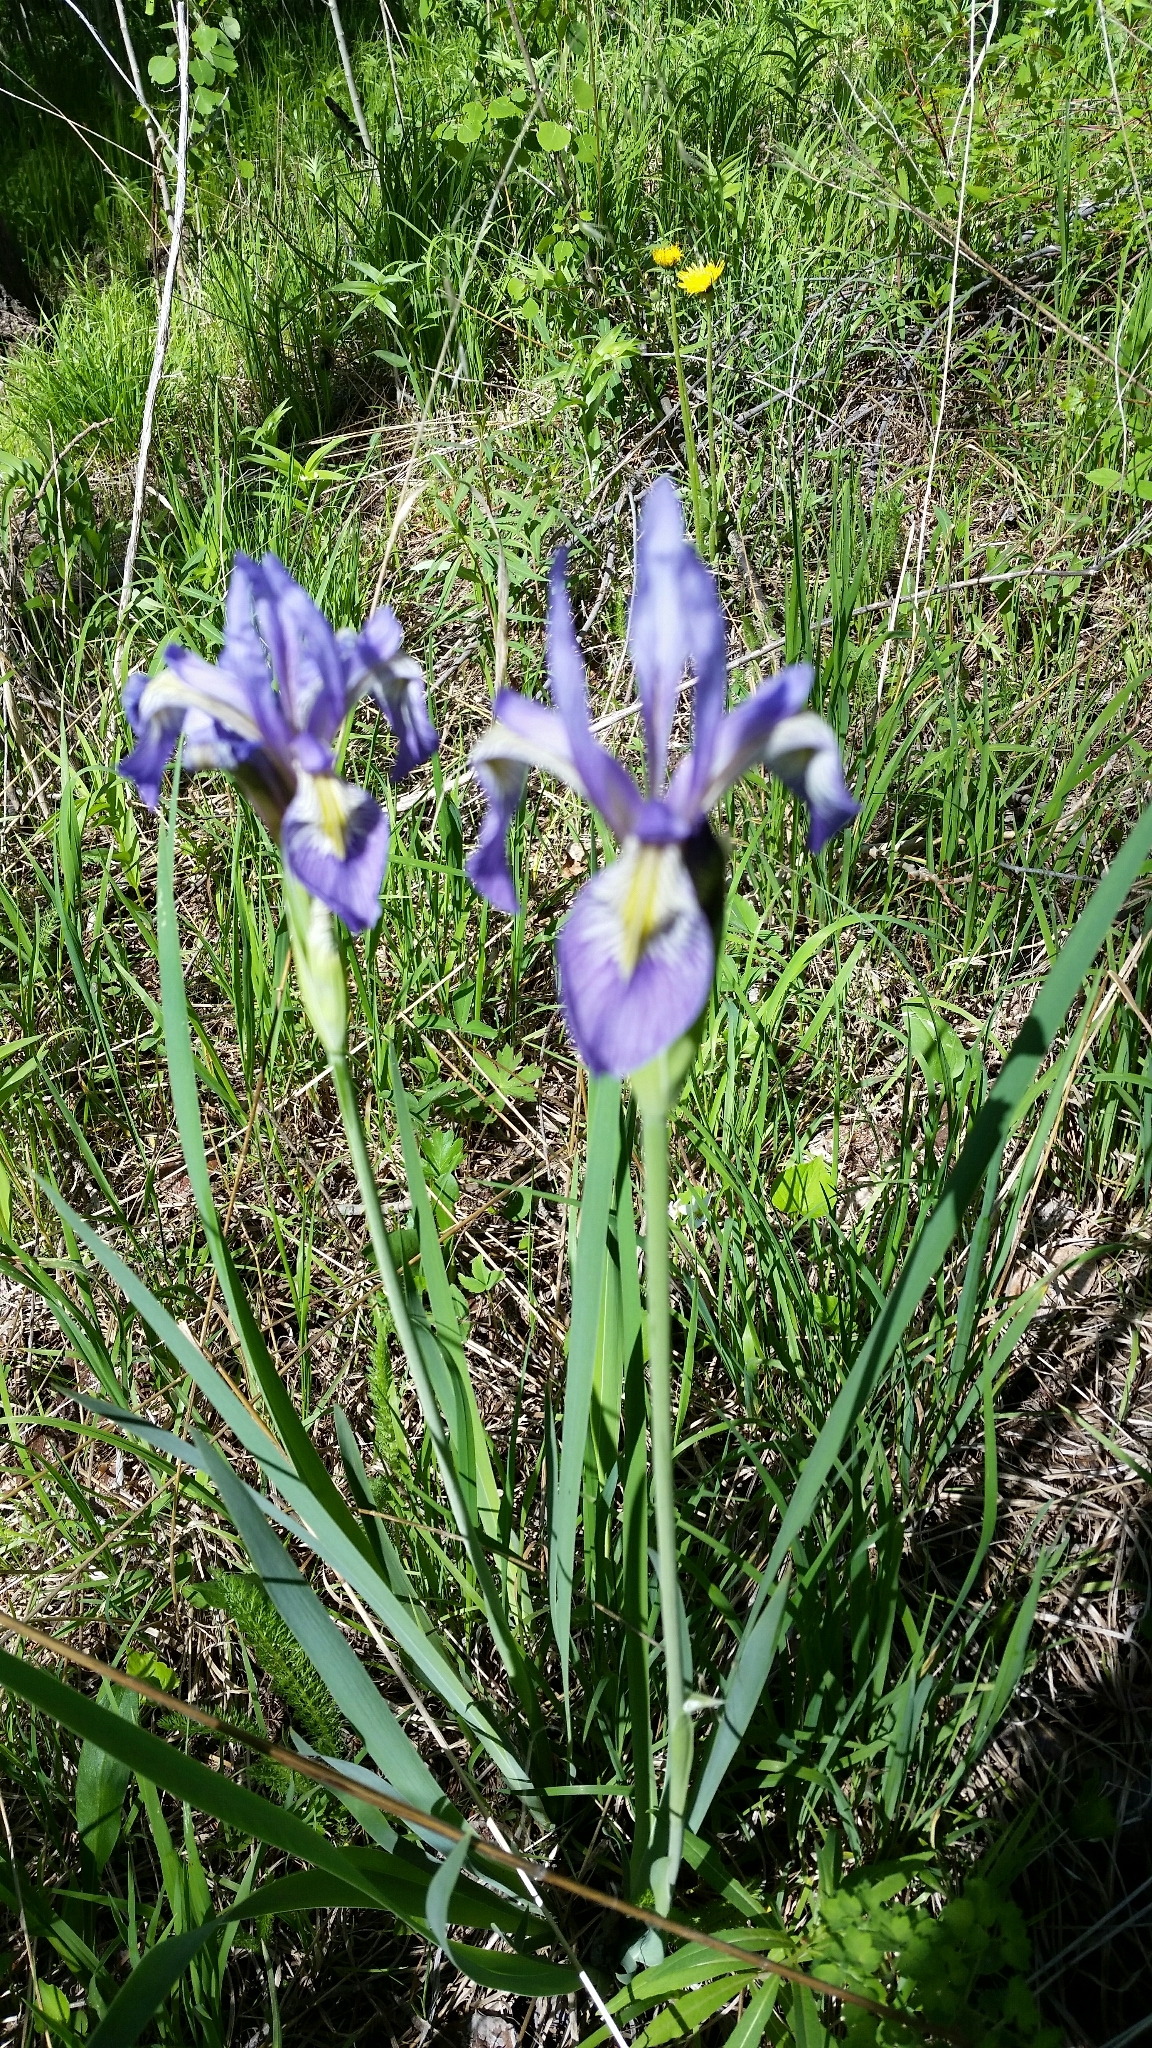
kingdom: Plantae
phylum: Tracheophyta
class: Liliopsida
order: Asparagales
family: Iridaceae
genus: Iris
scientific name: Iris missouriensis
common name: Rocky mountain iris
